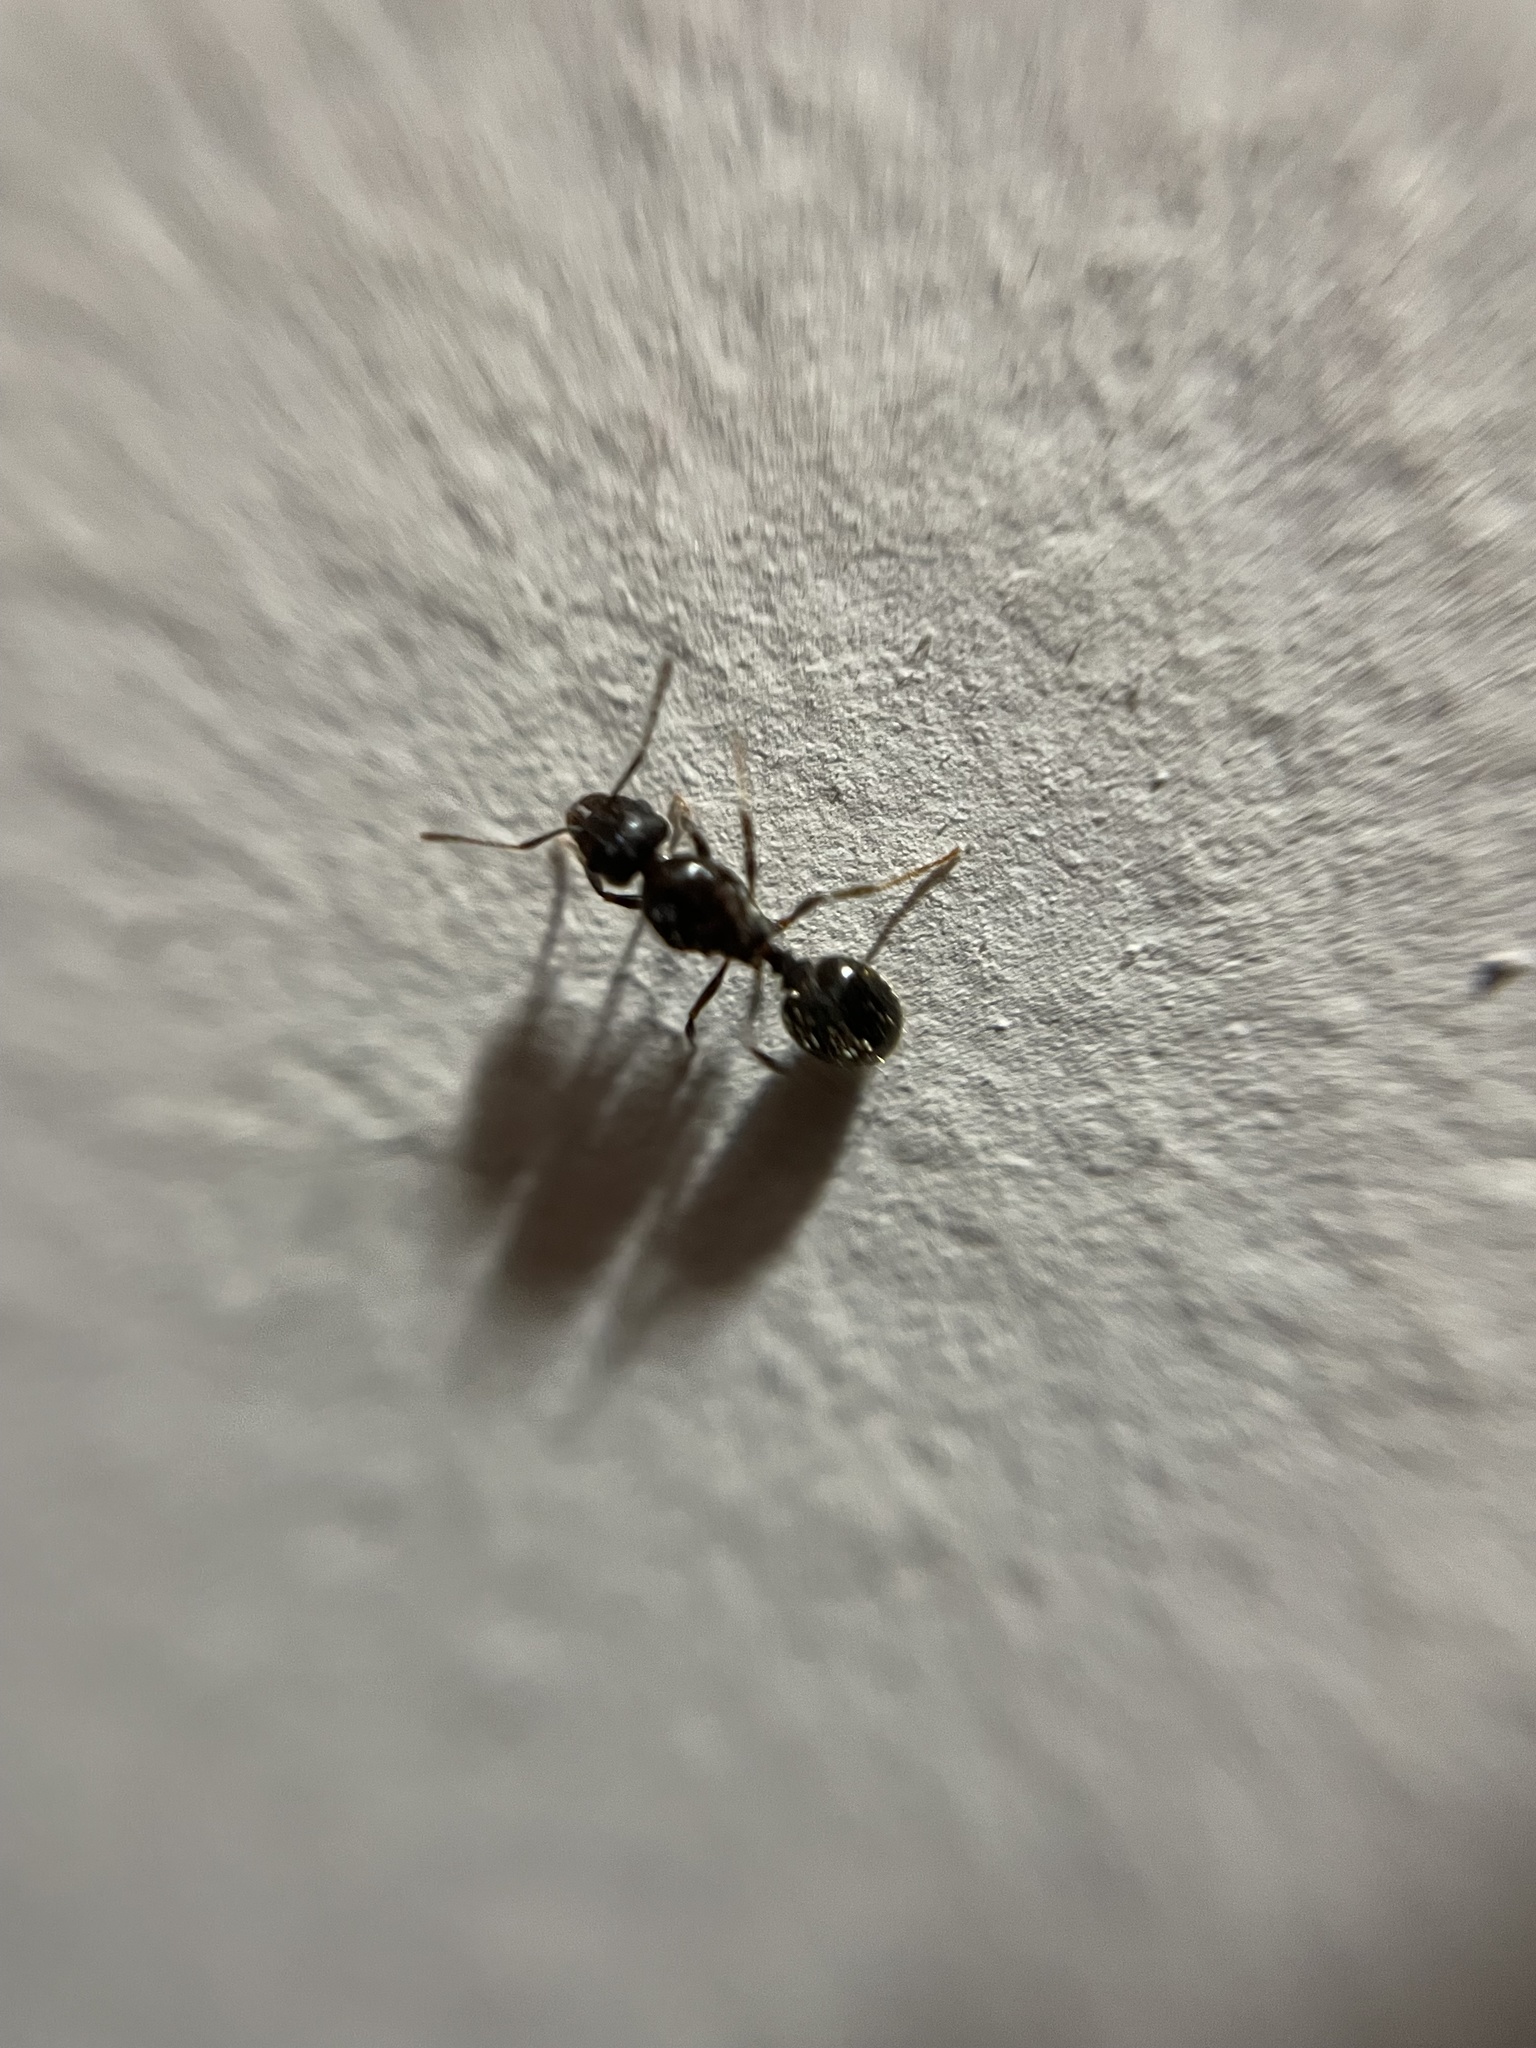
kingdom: Animalia
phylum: Arthropoda
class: Insecta
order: Hymenoptera
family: Formicidae
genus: Pheidole
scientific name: Pheidole
